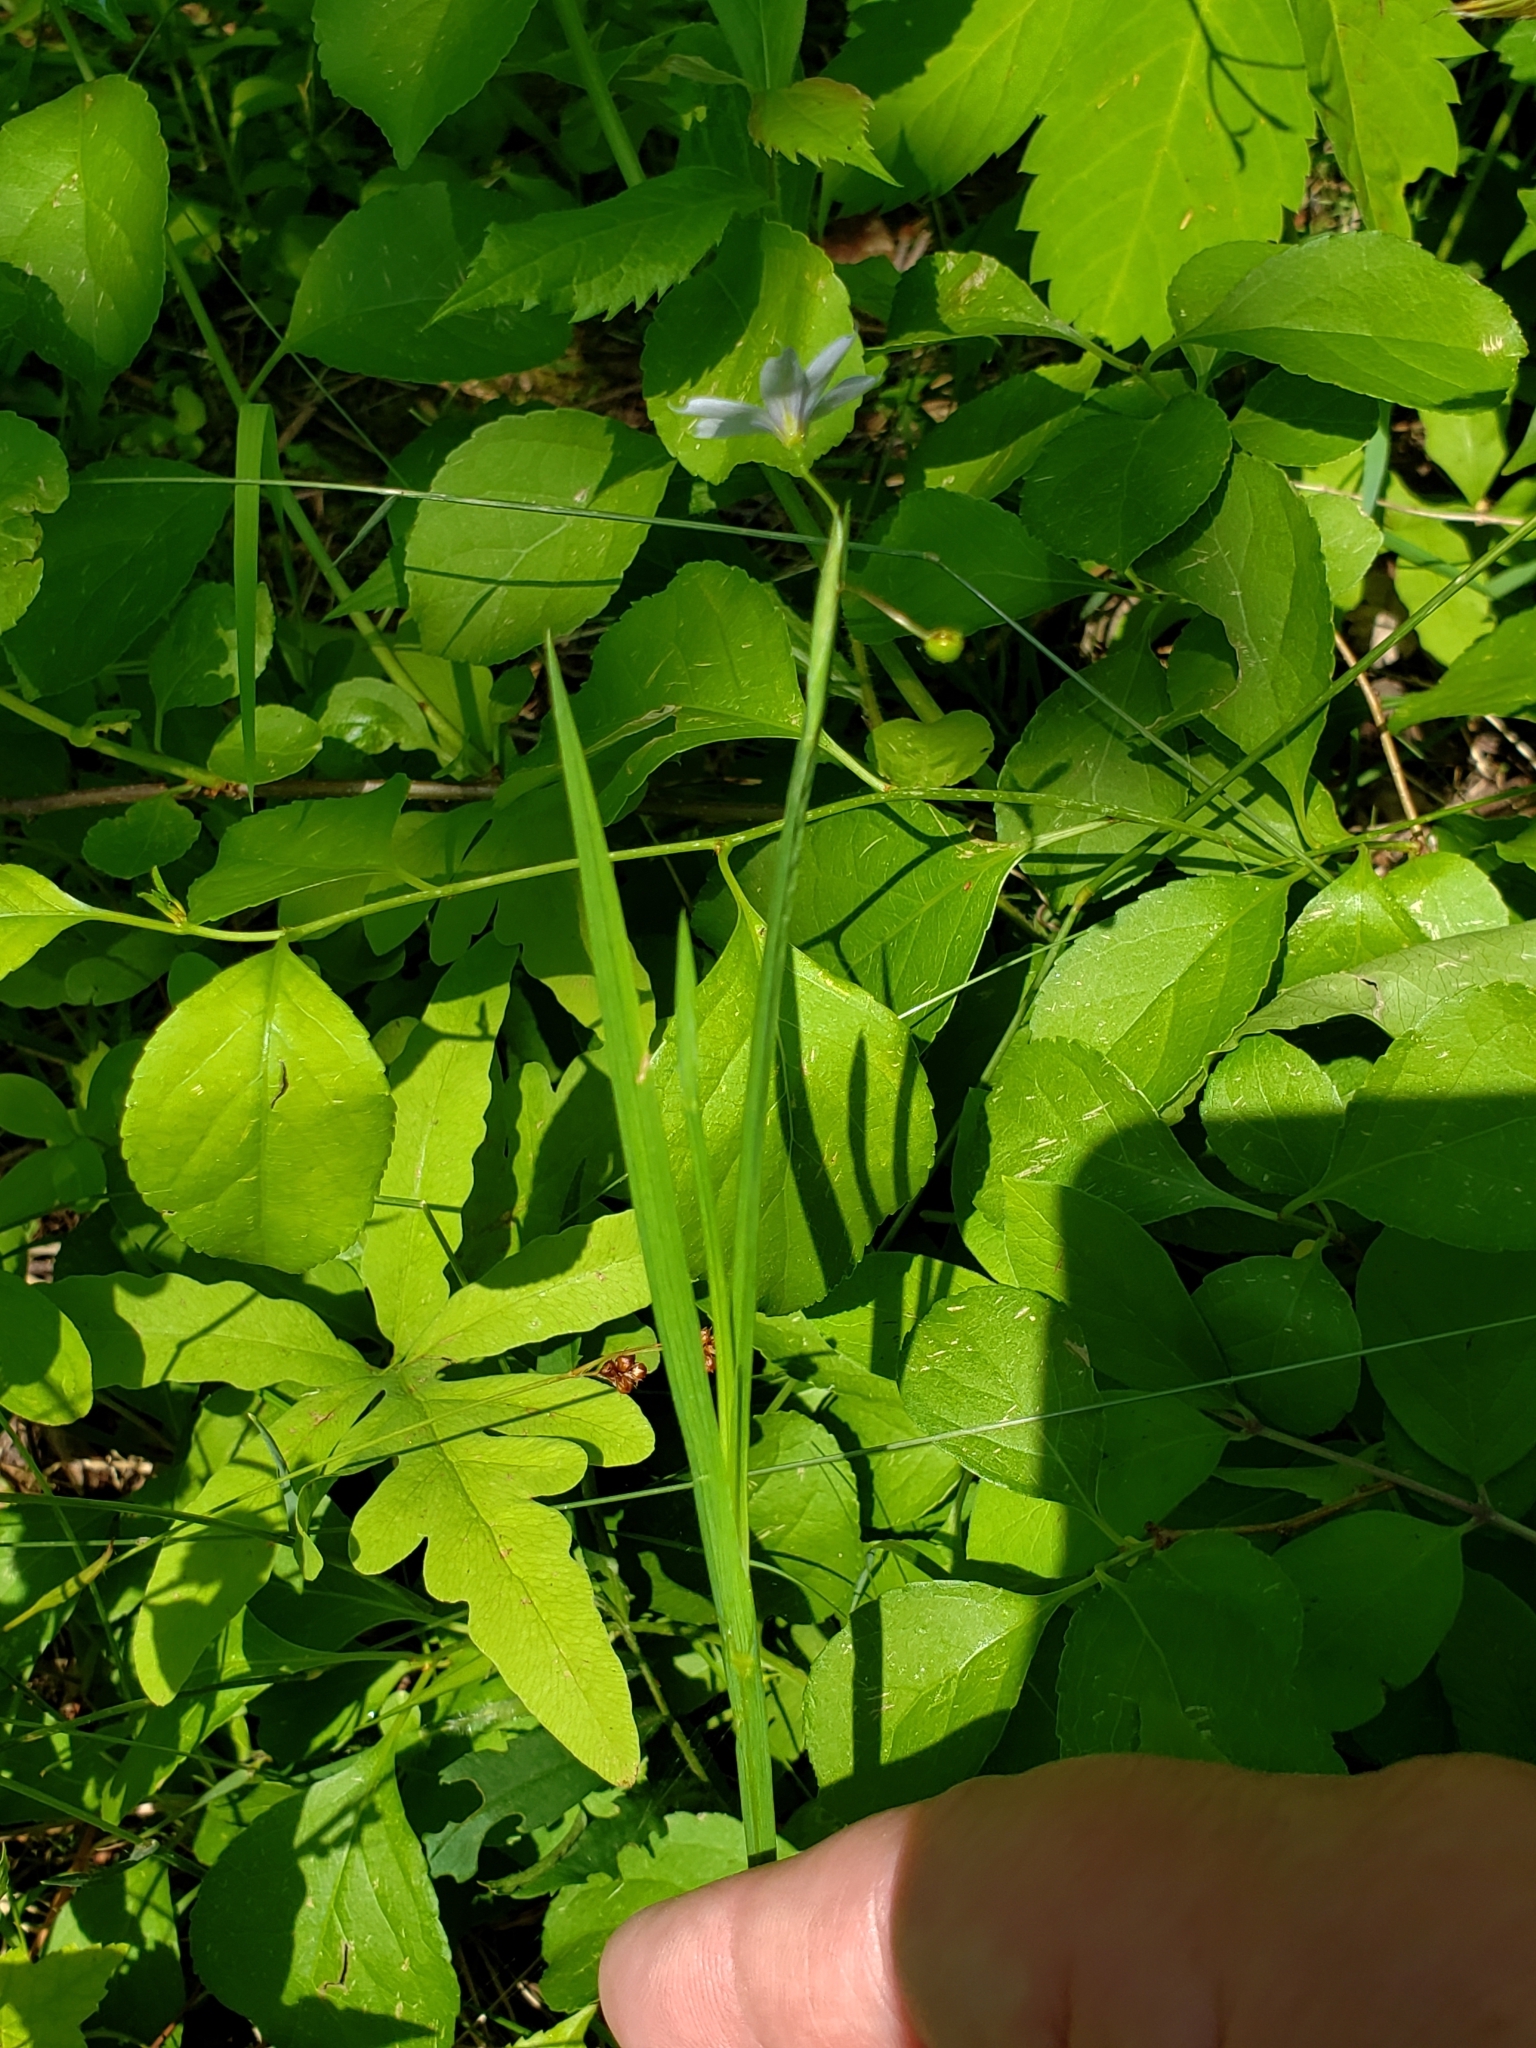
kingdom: Plantae
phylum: Tracheophyta
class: Liliopsida
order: Asparagales
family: Iridaceae
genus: Sisyrinchium
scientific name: Sisyrinchium angustifolium
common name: Narrow-leaf blue-eyed-grass
